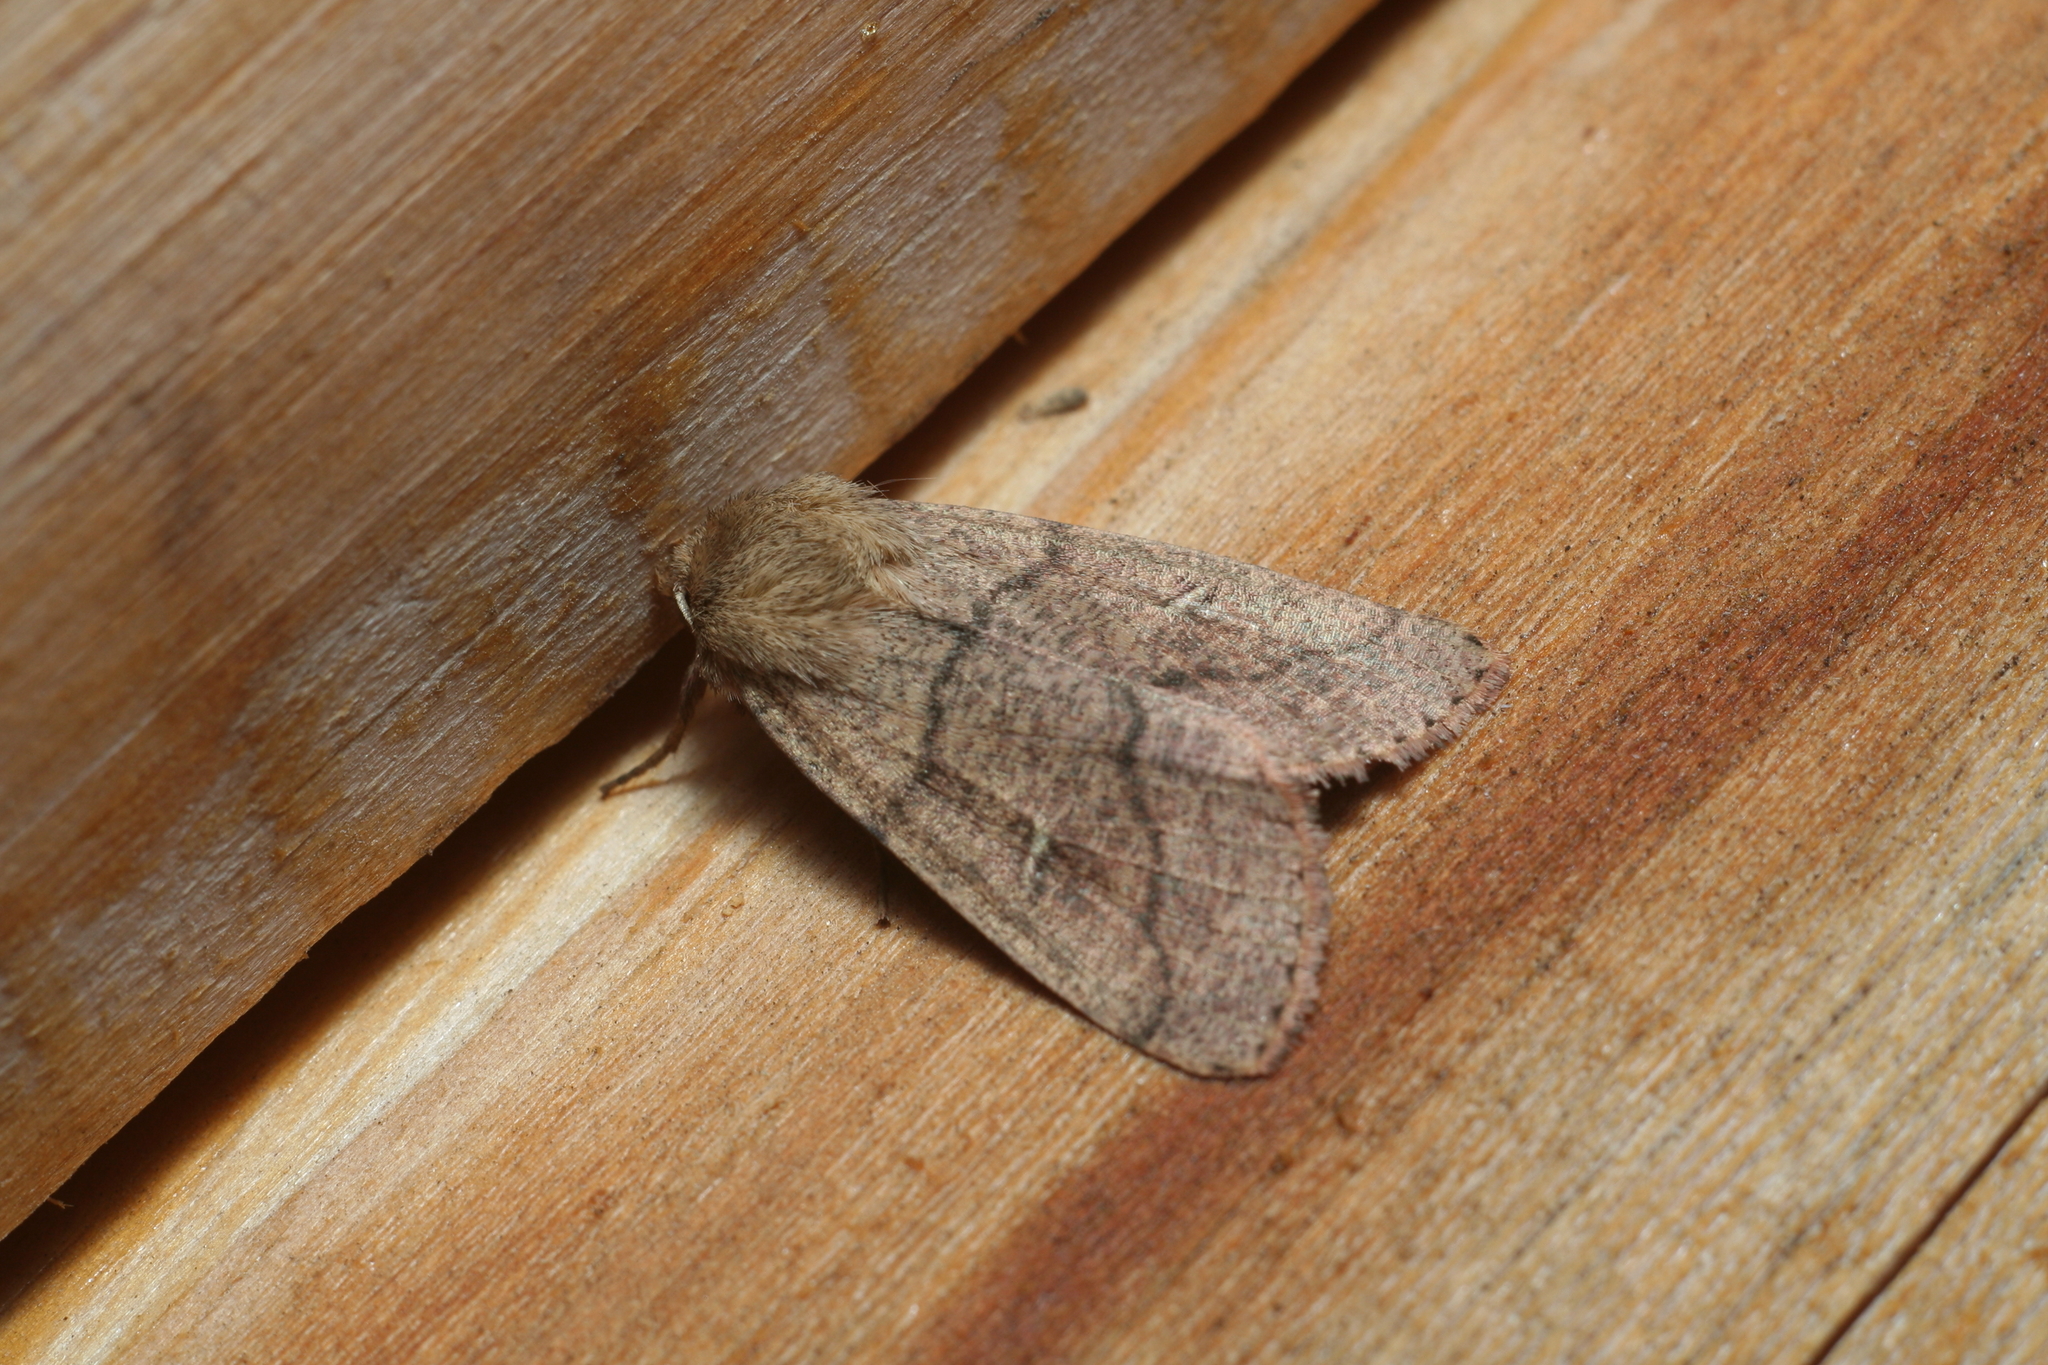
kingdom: Animalia
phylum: Arthropoda
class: Insecta
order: Lepidoptera
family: Noctuidae
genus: Mythimna
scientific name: Mythimna turca
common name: Double line
